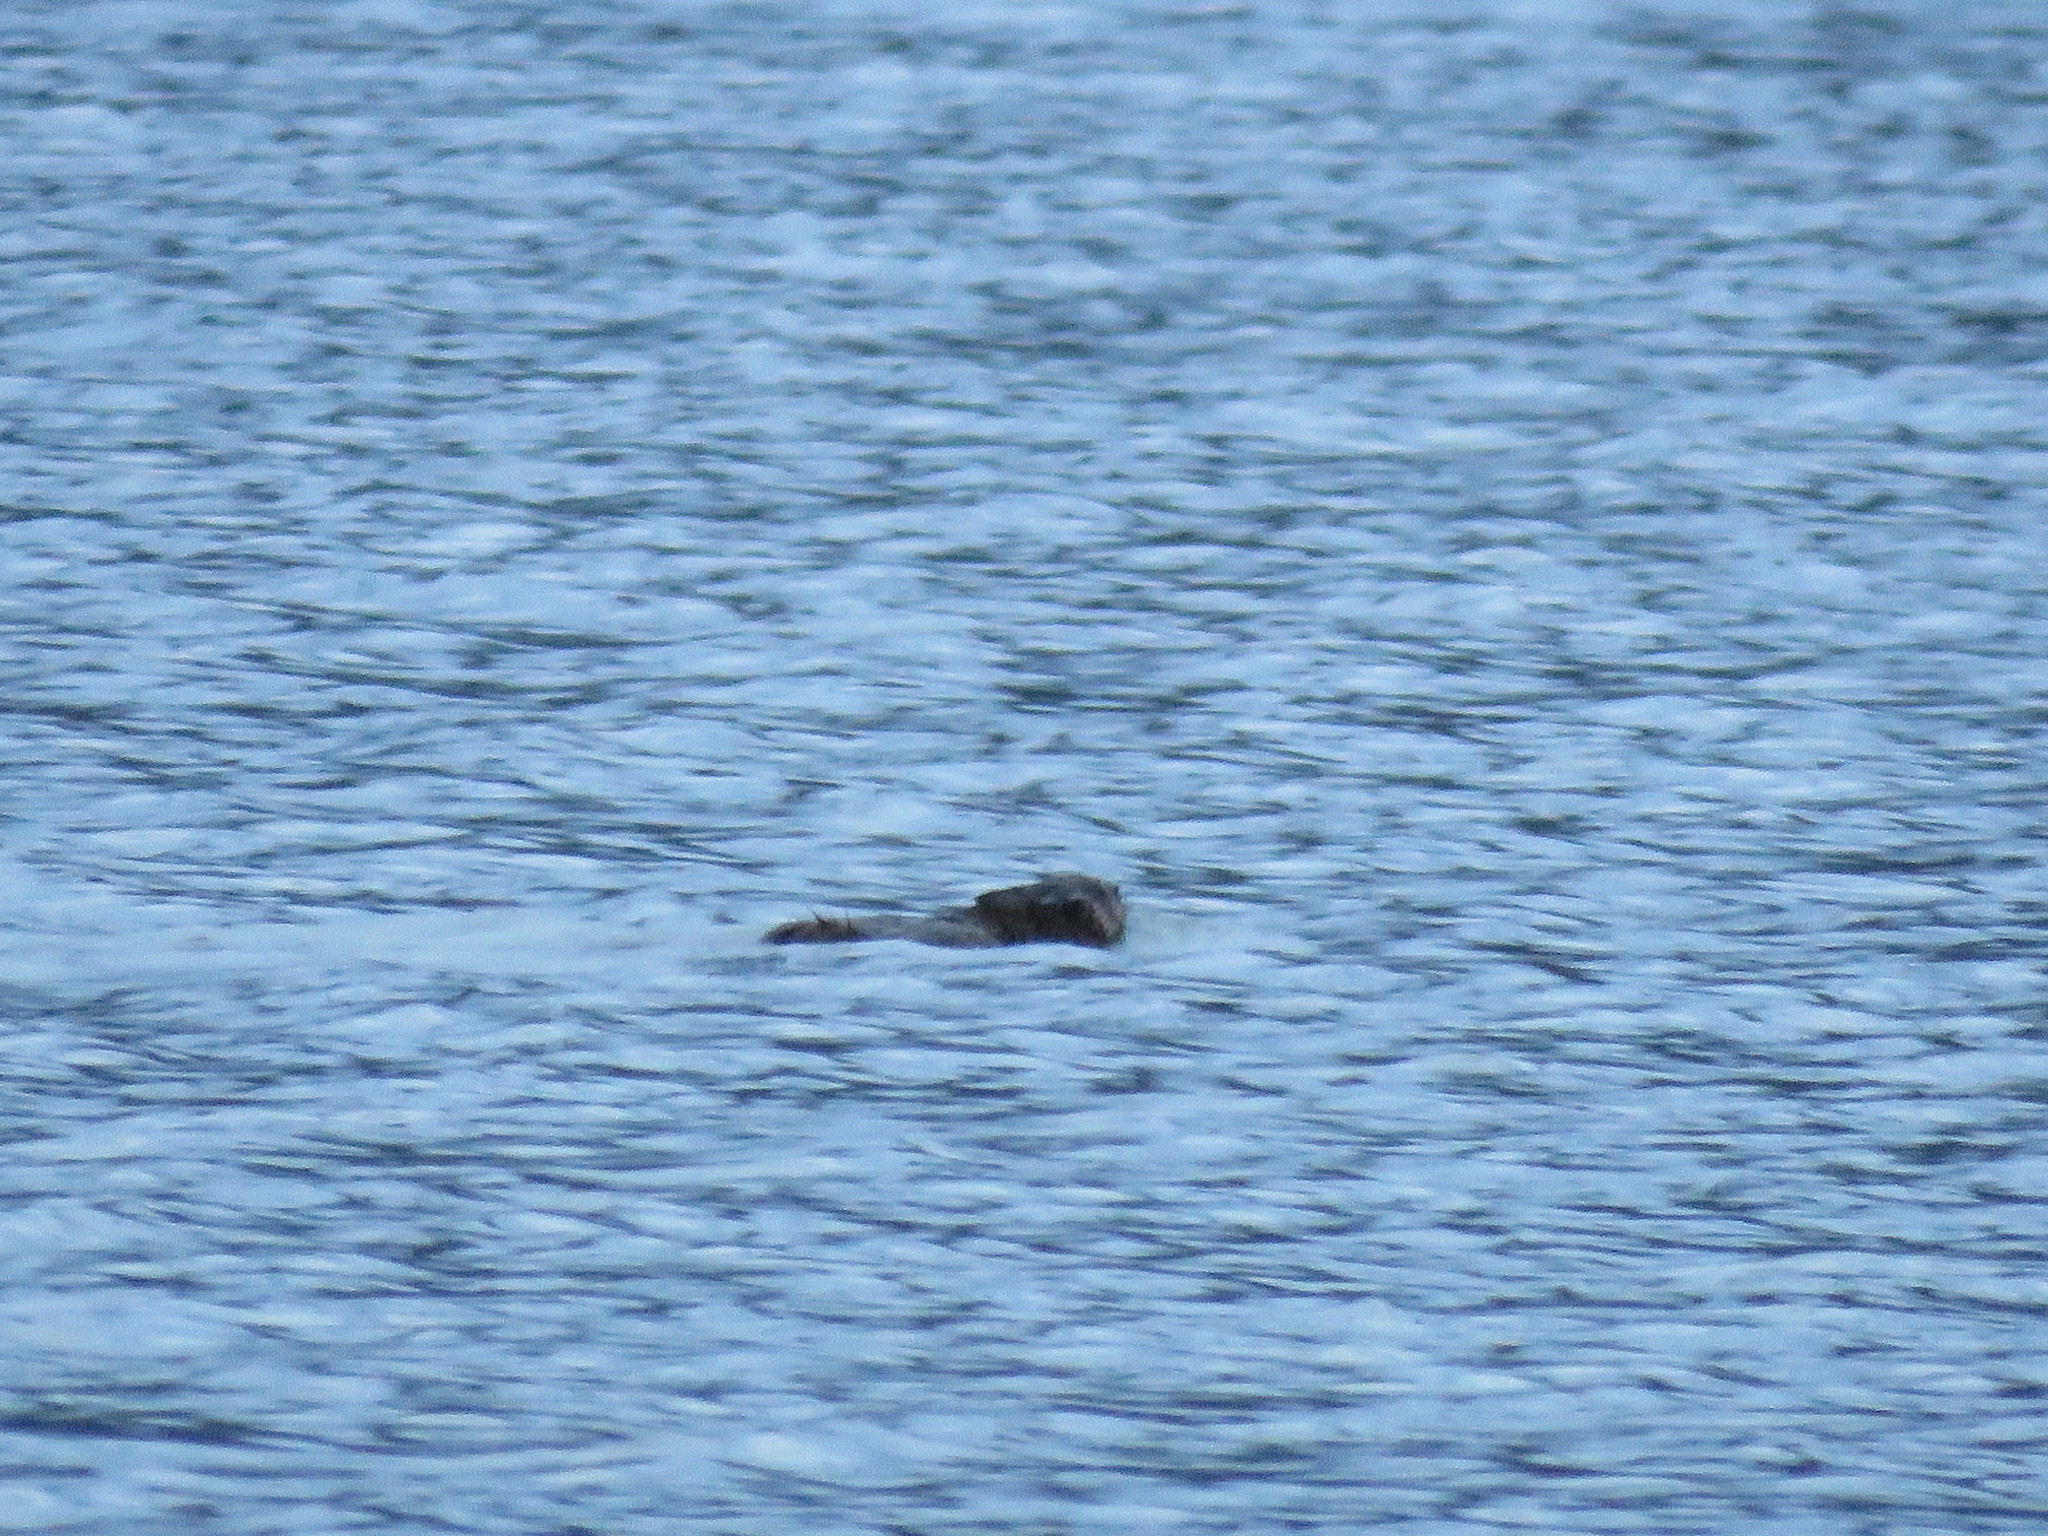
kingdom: Animalia
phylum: Chordata
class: Mammalia
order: Rodentia
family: Cricetidae
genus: Ondatra
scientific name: Ondatra zibethicus
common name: Muskrat
